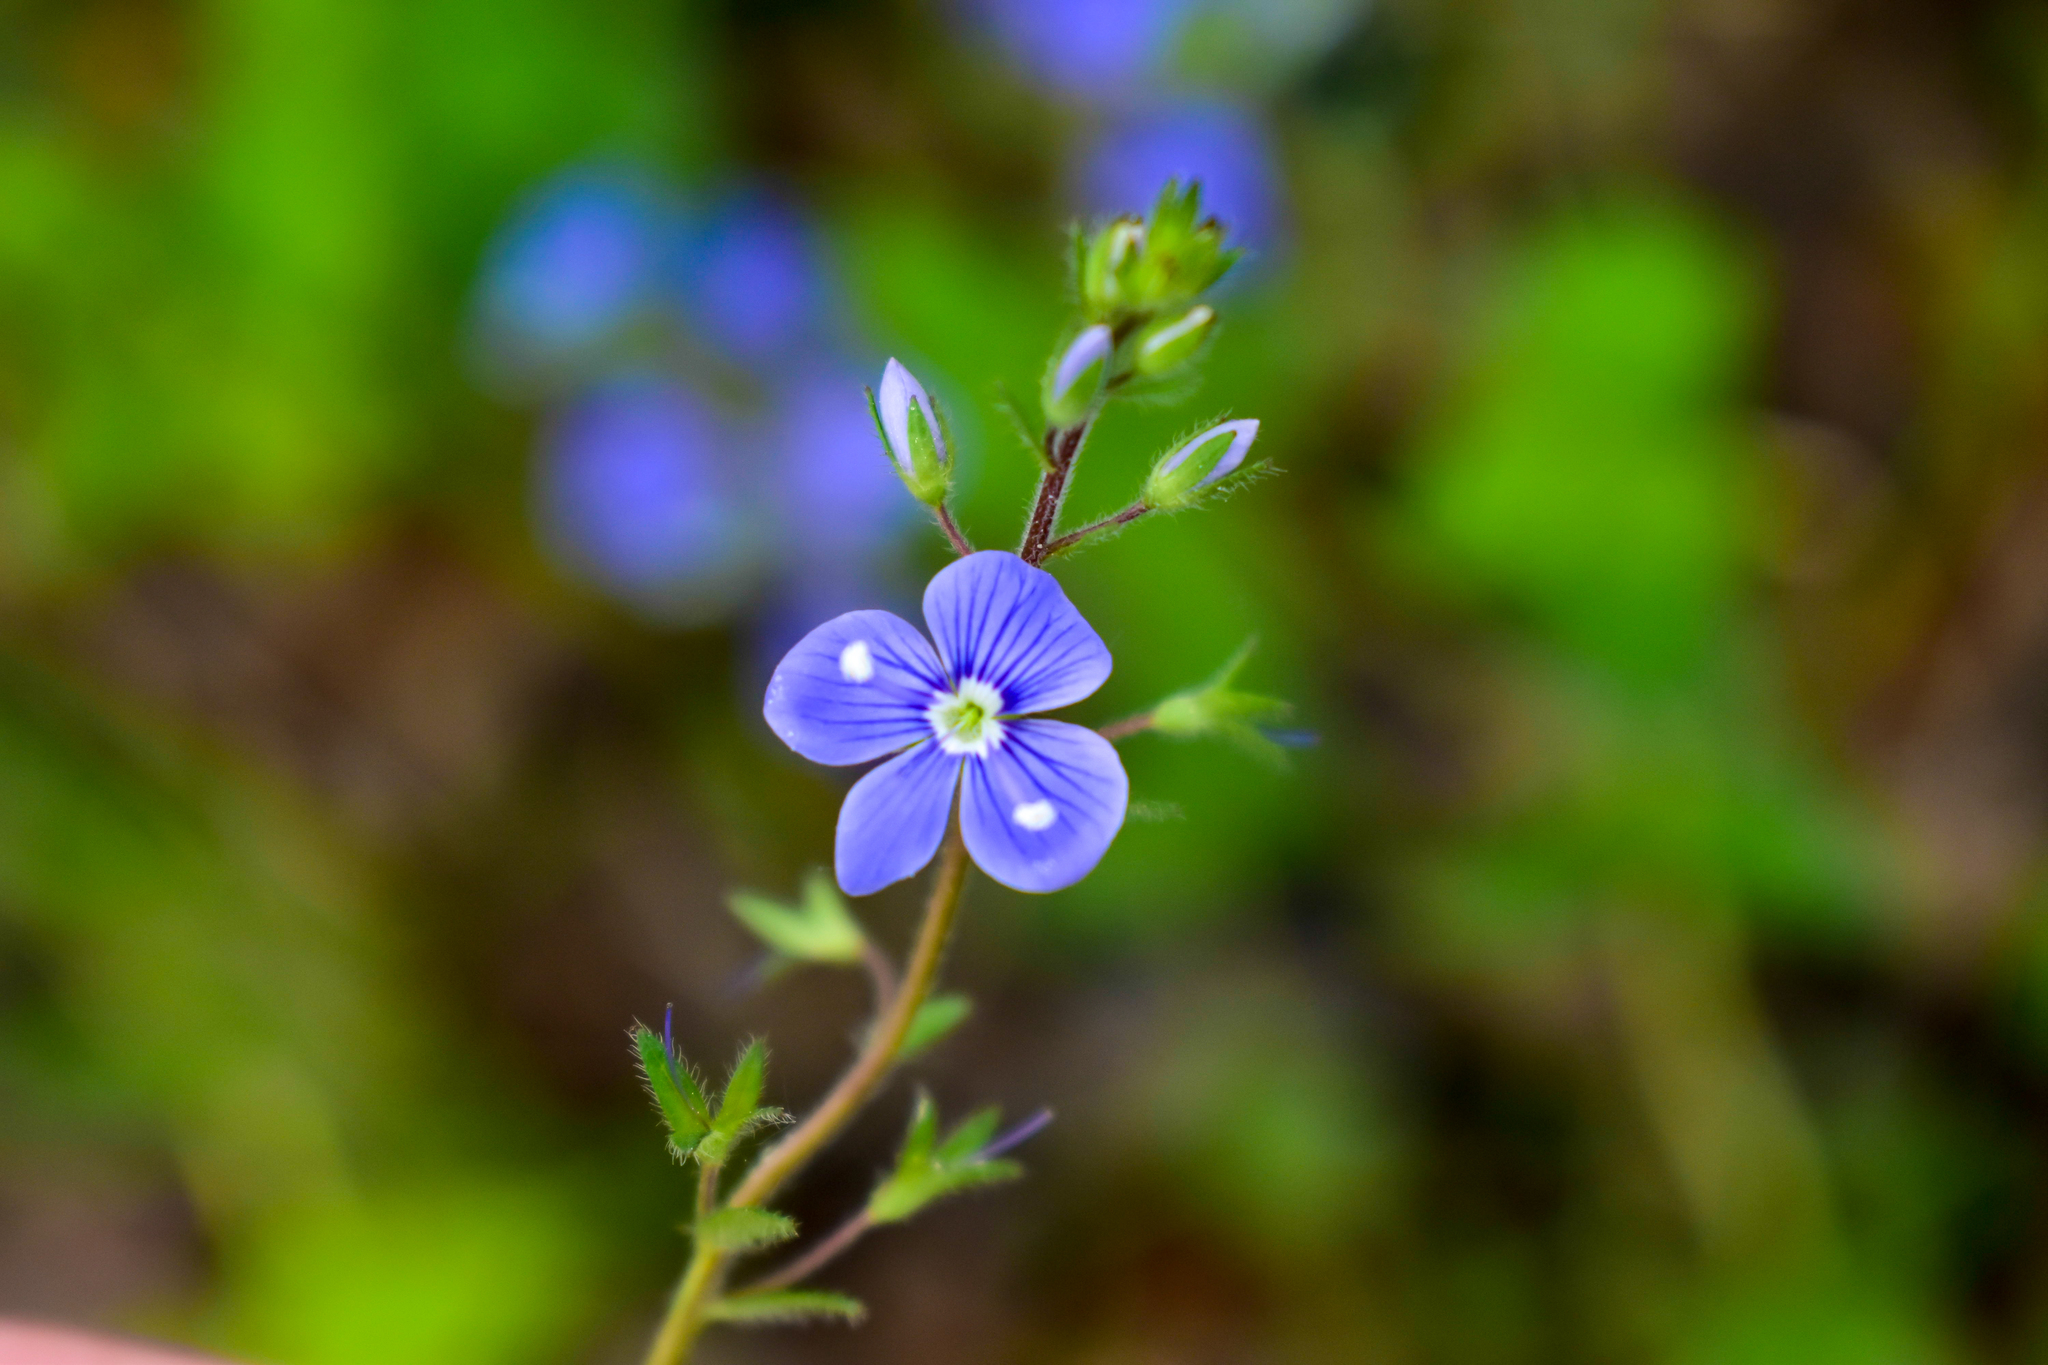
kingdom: Plantae
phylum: Tracheophyta
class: Magnoliopsida
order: Lamiales
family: Plantaginaceae
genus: Veronica
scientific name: Veronica chamaedrys
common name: Germander speedwell
